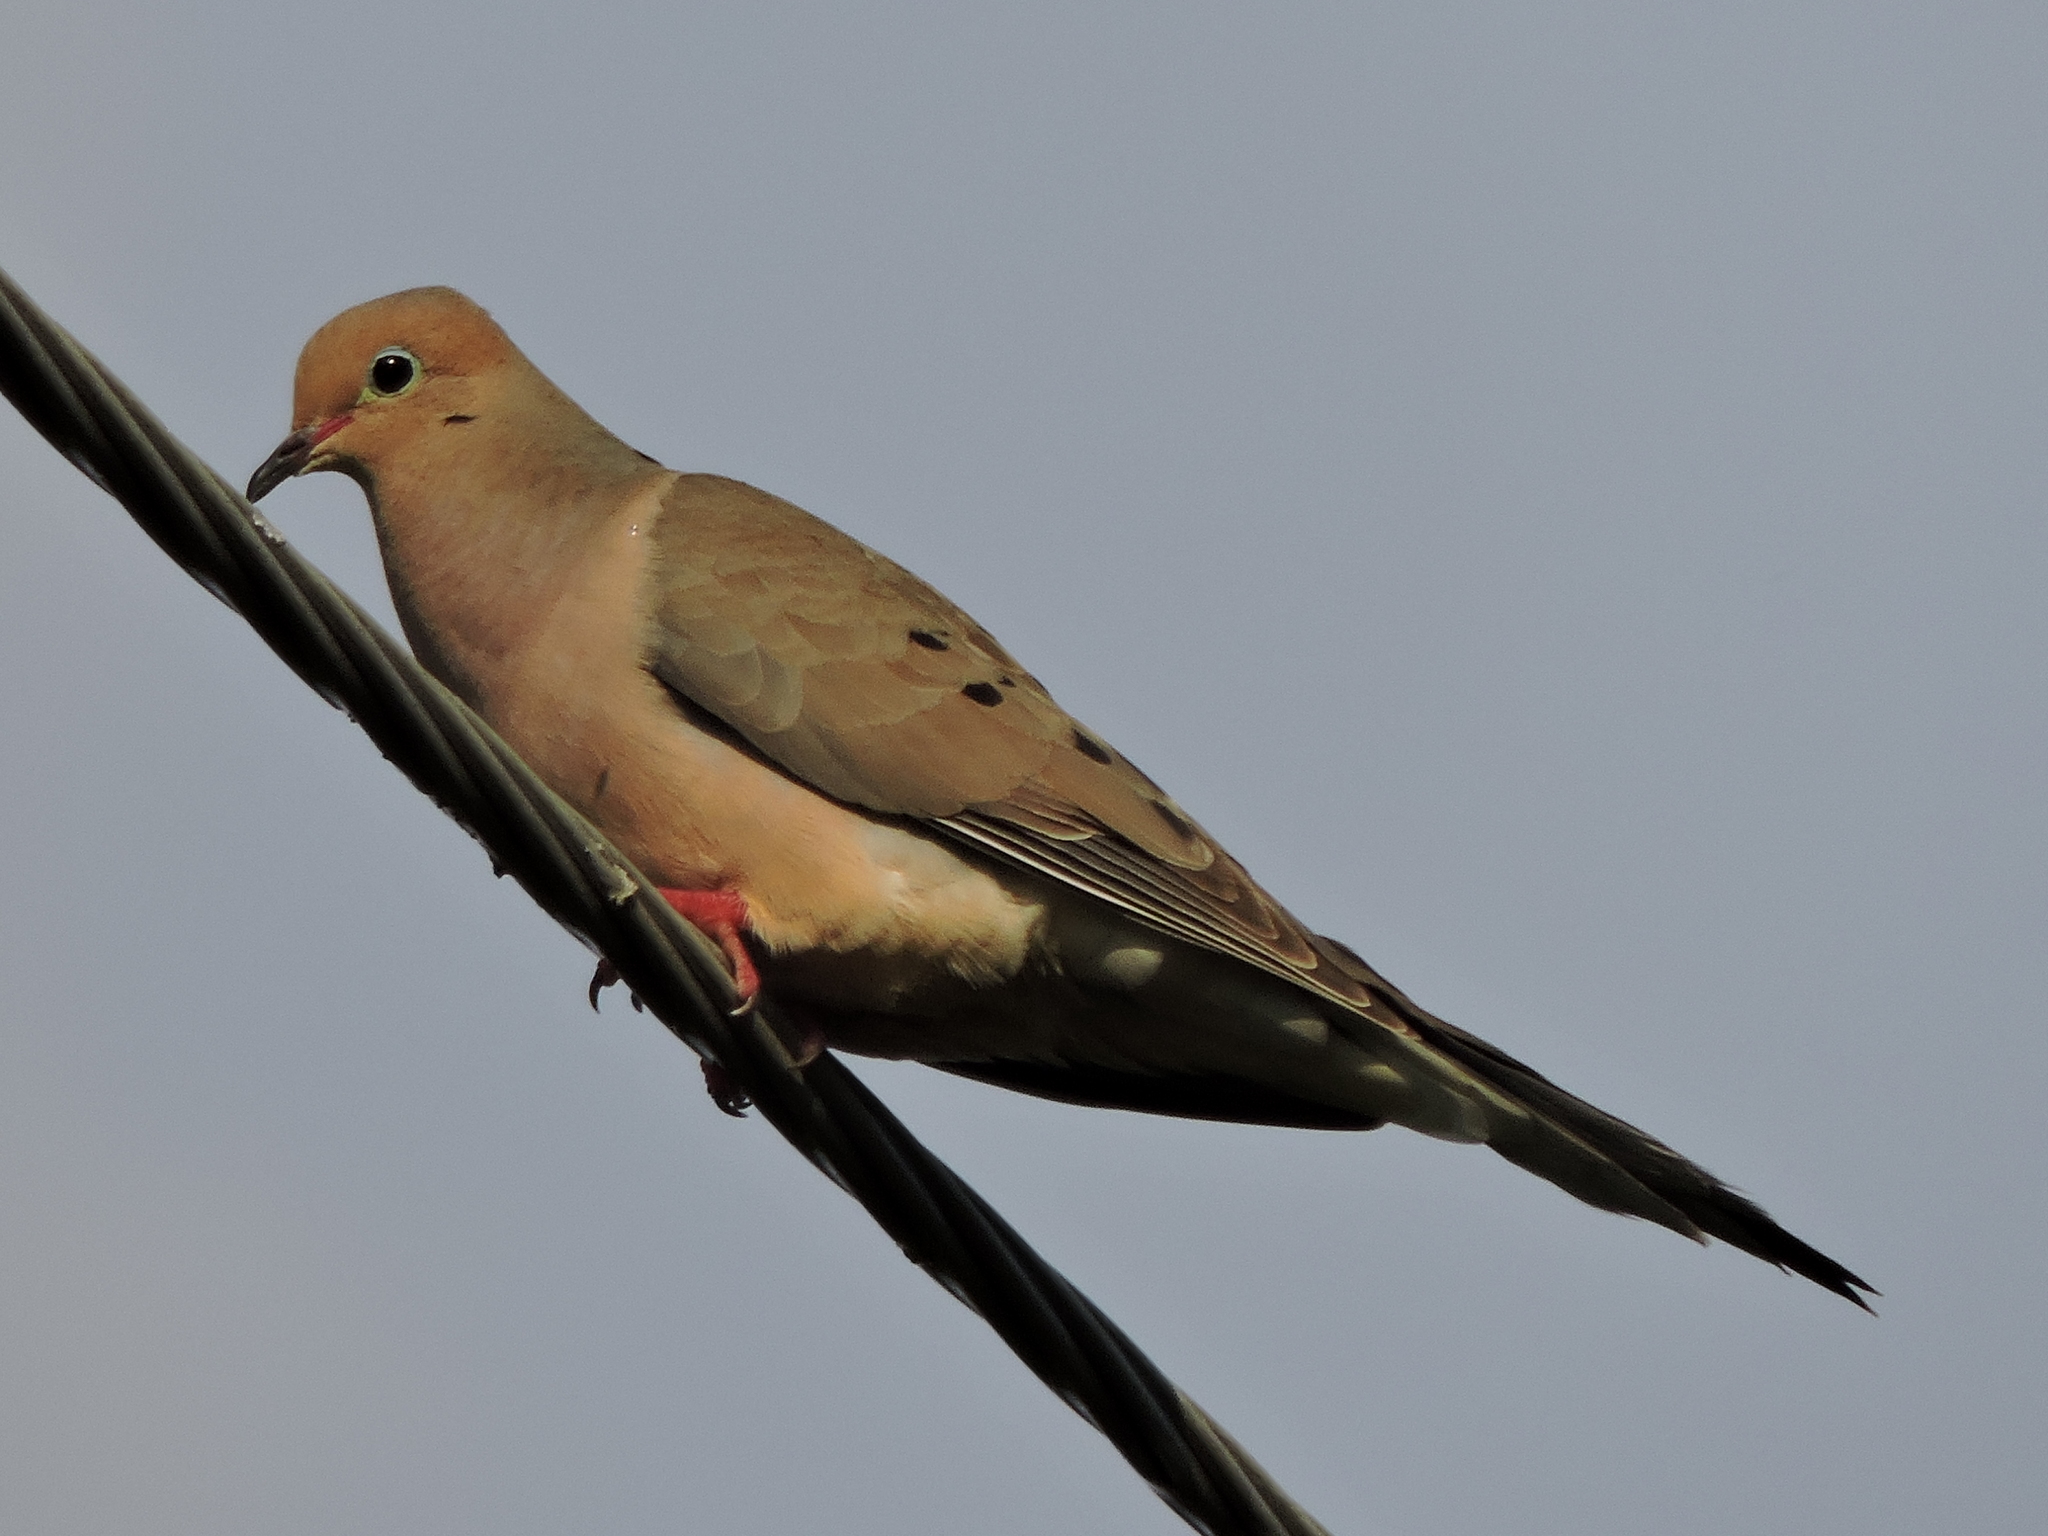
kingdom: Animalia
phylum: Chordata
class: Aves
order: Columbiformes
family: Columbidae
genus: Zenaida
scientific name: Zenaida macroura
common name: Mourning dove
